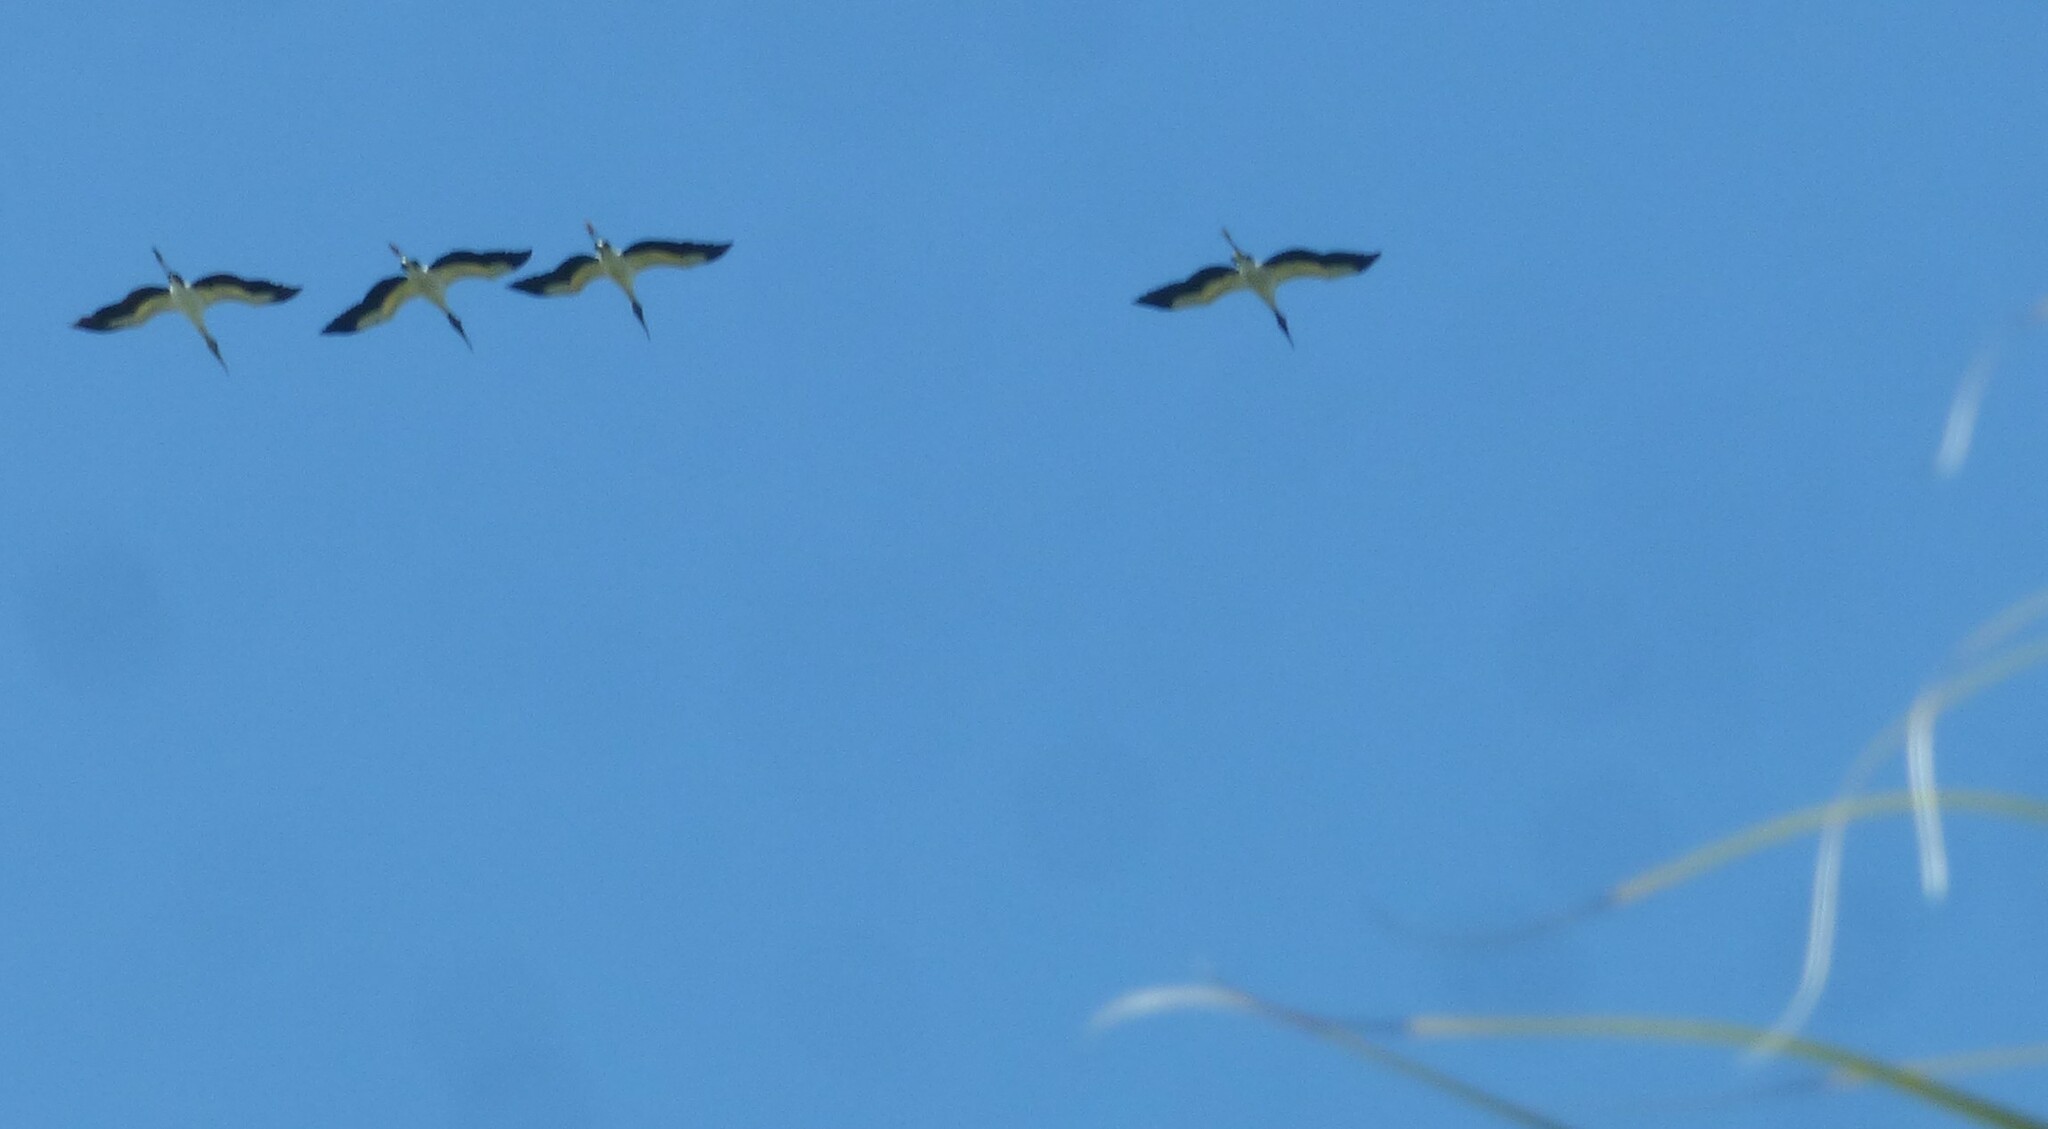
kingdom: Animalia
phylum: Chordata
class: Aves
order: Ciconiiformes
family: Ciconiidae
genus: Mycteria
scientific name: Mycteria americana
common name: Wood stork
